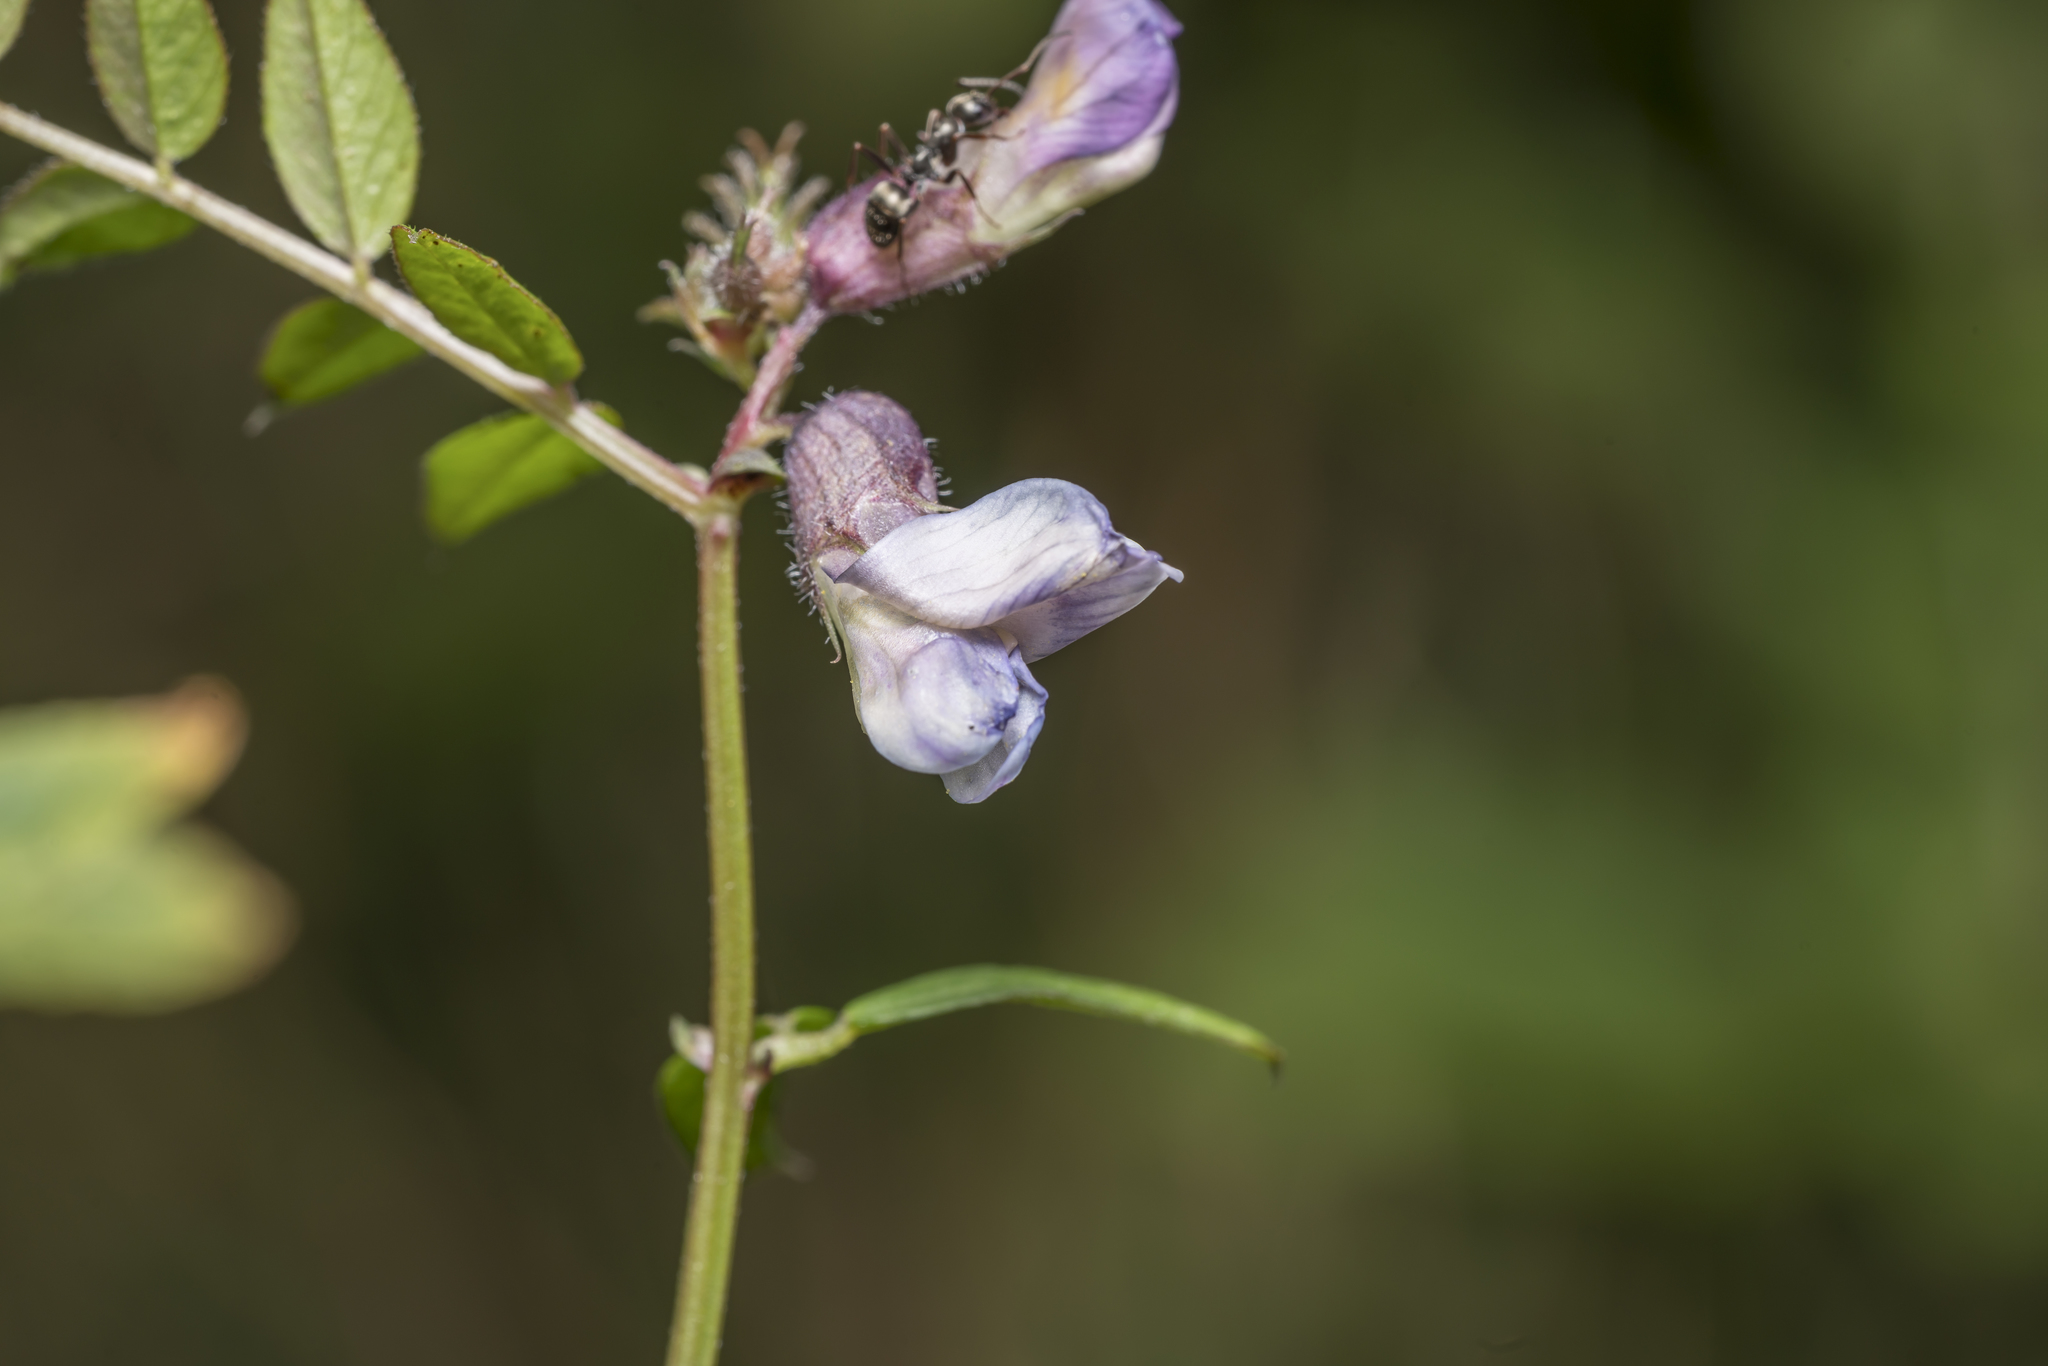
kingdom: Plantae
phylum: Tracheophyta
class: Magnoliopsida
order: Fabales
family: Fabaceae
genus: Vicia
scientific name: Vicia sepium
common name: Bush vetch
